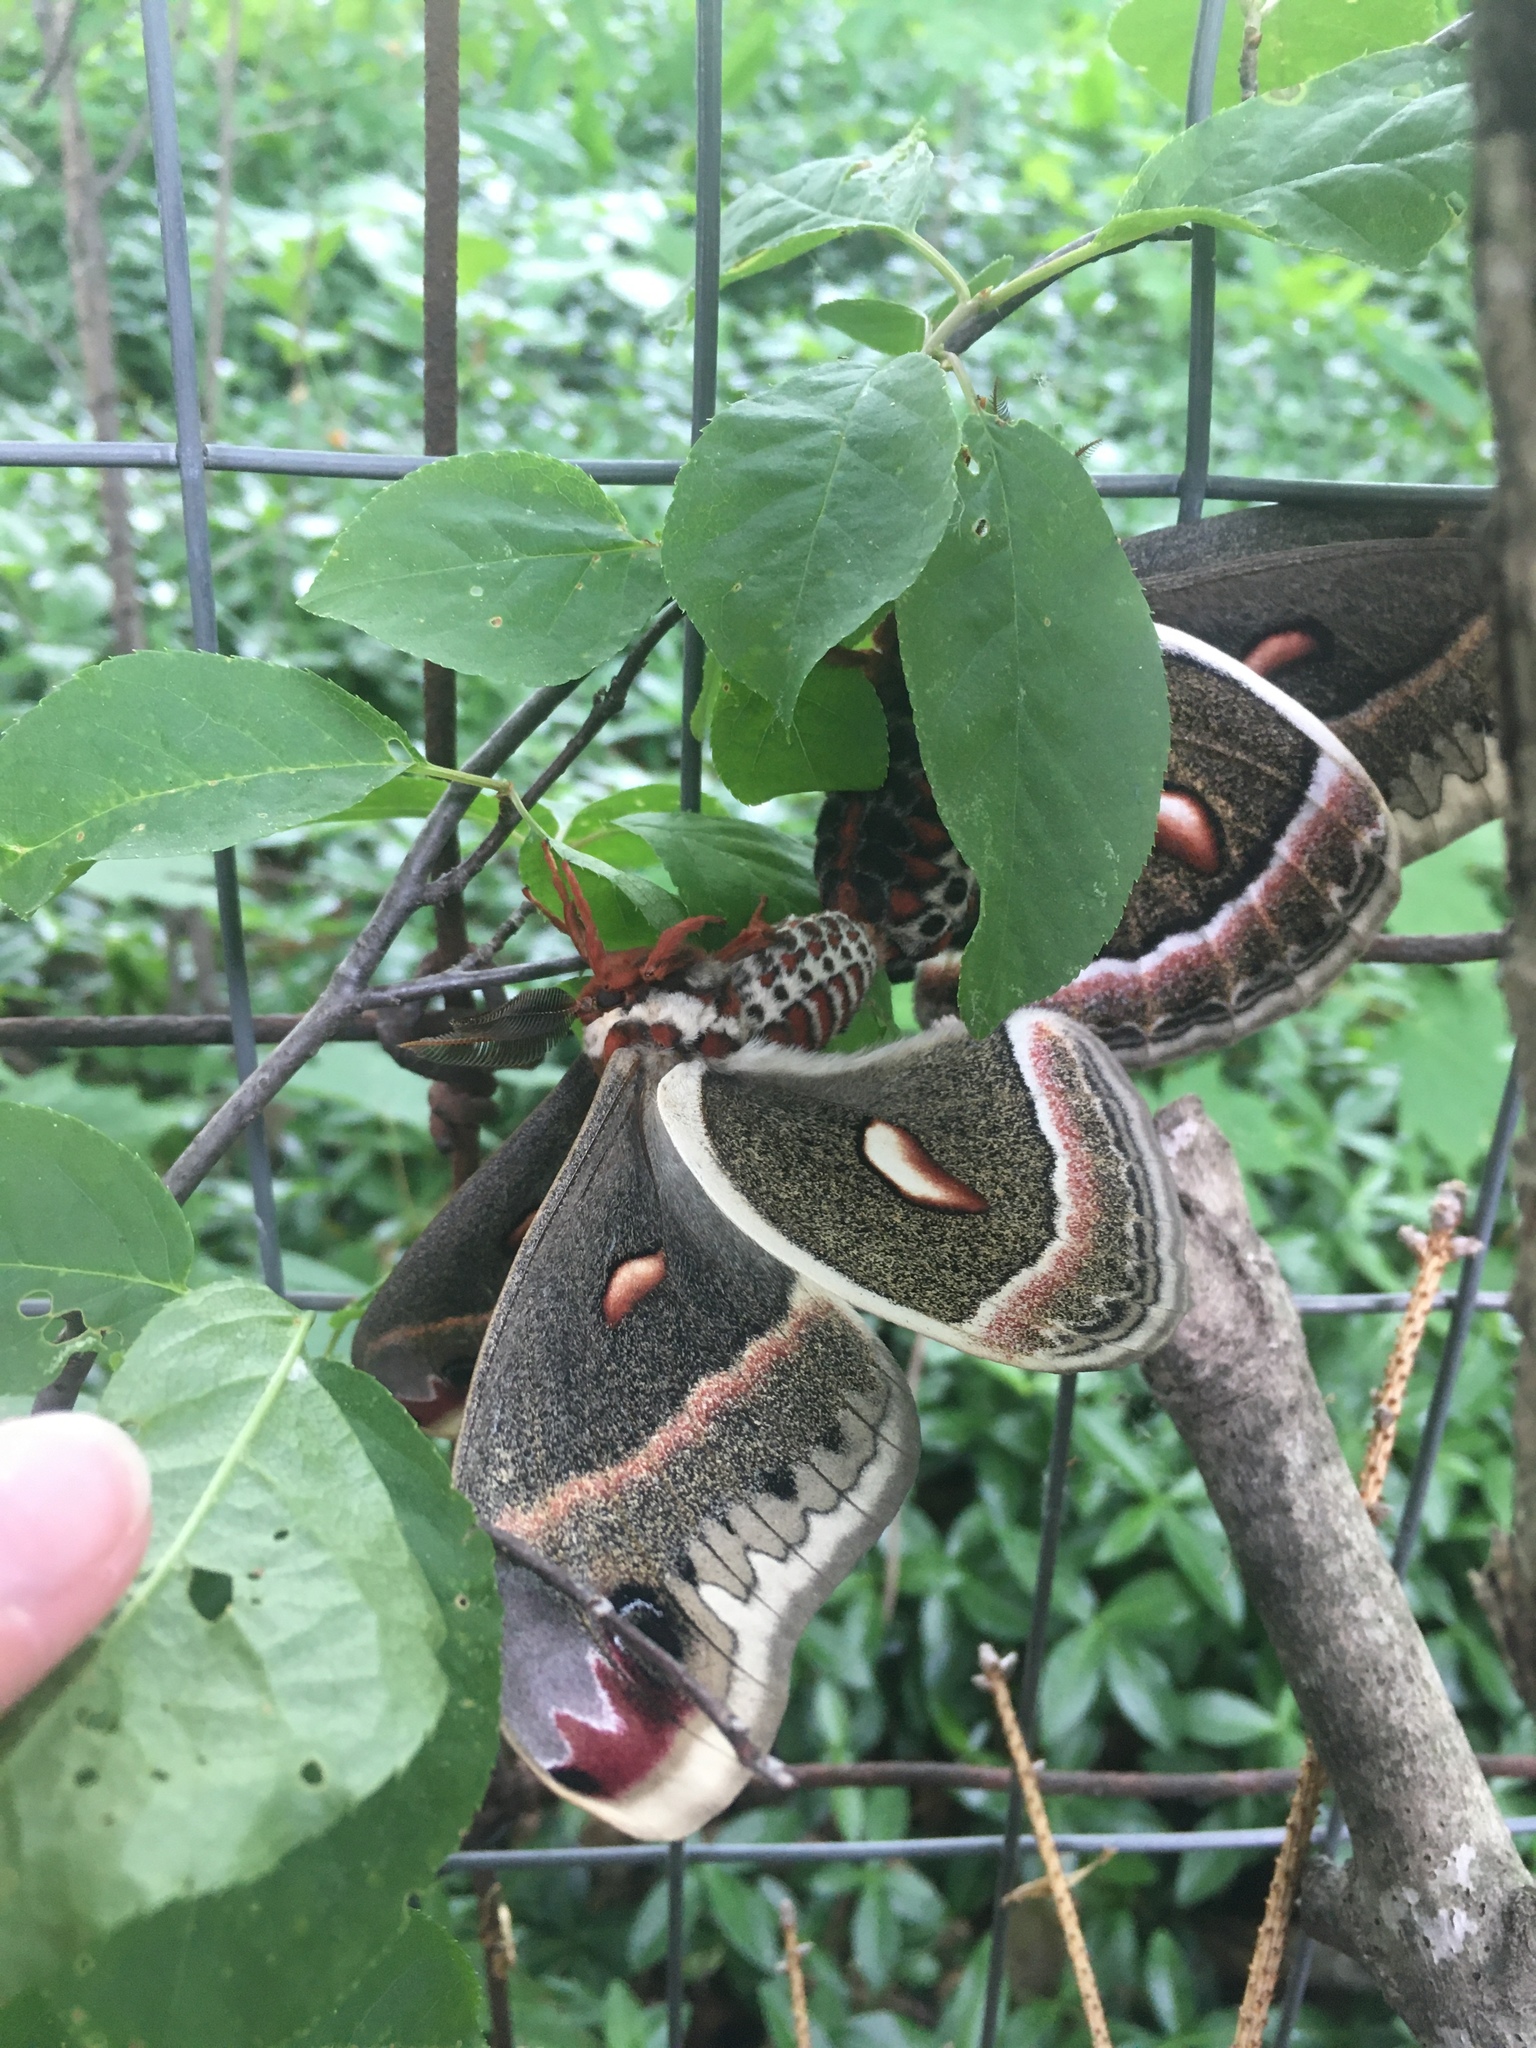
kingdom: Animalia
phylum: Arthropoda
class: Insecta
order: Lepidoptera
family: Saturniidae
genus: Hyalophora
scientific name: Hyalophora cecropia
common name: Cecropia silkmoth
